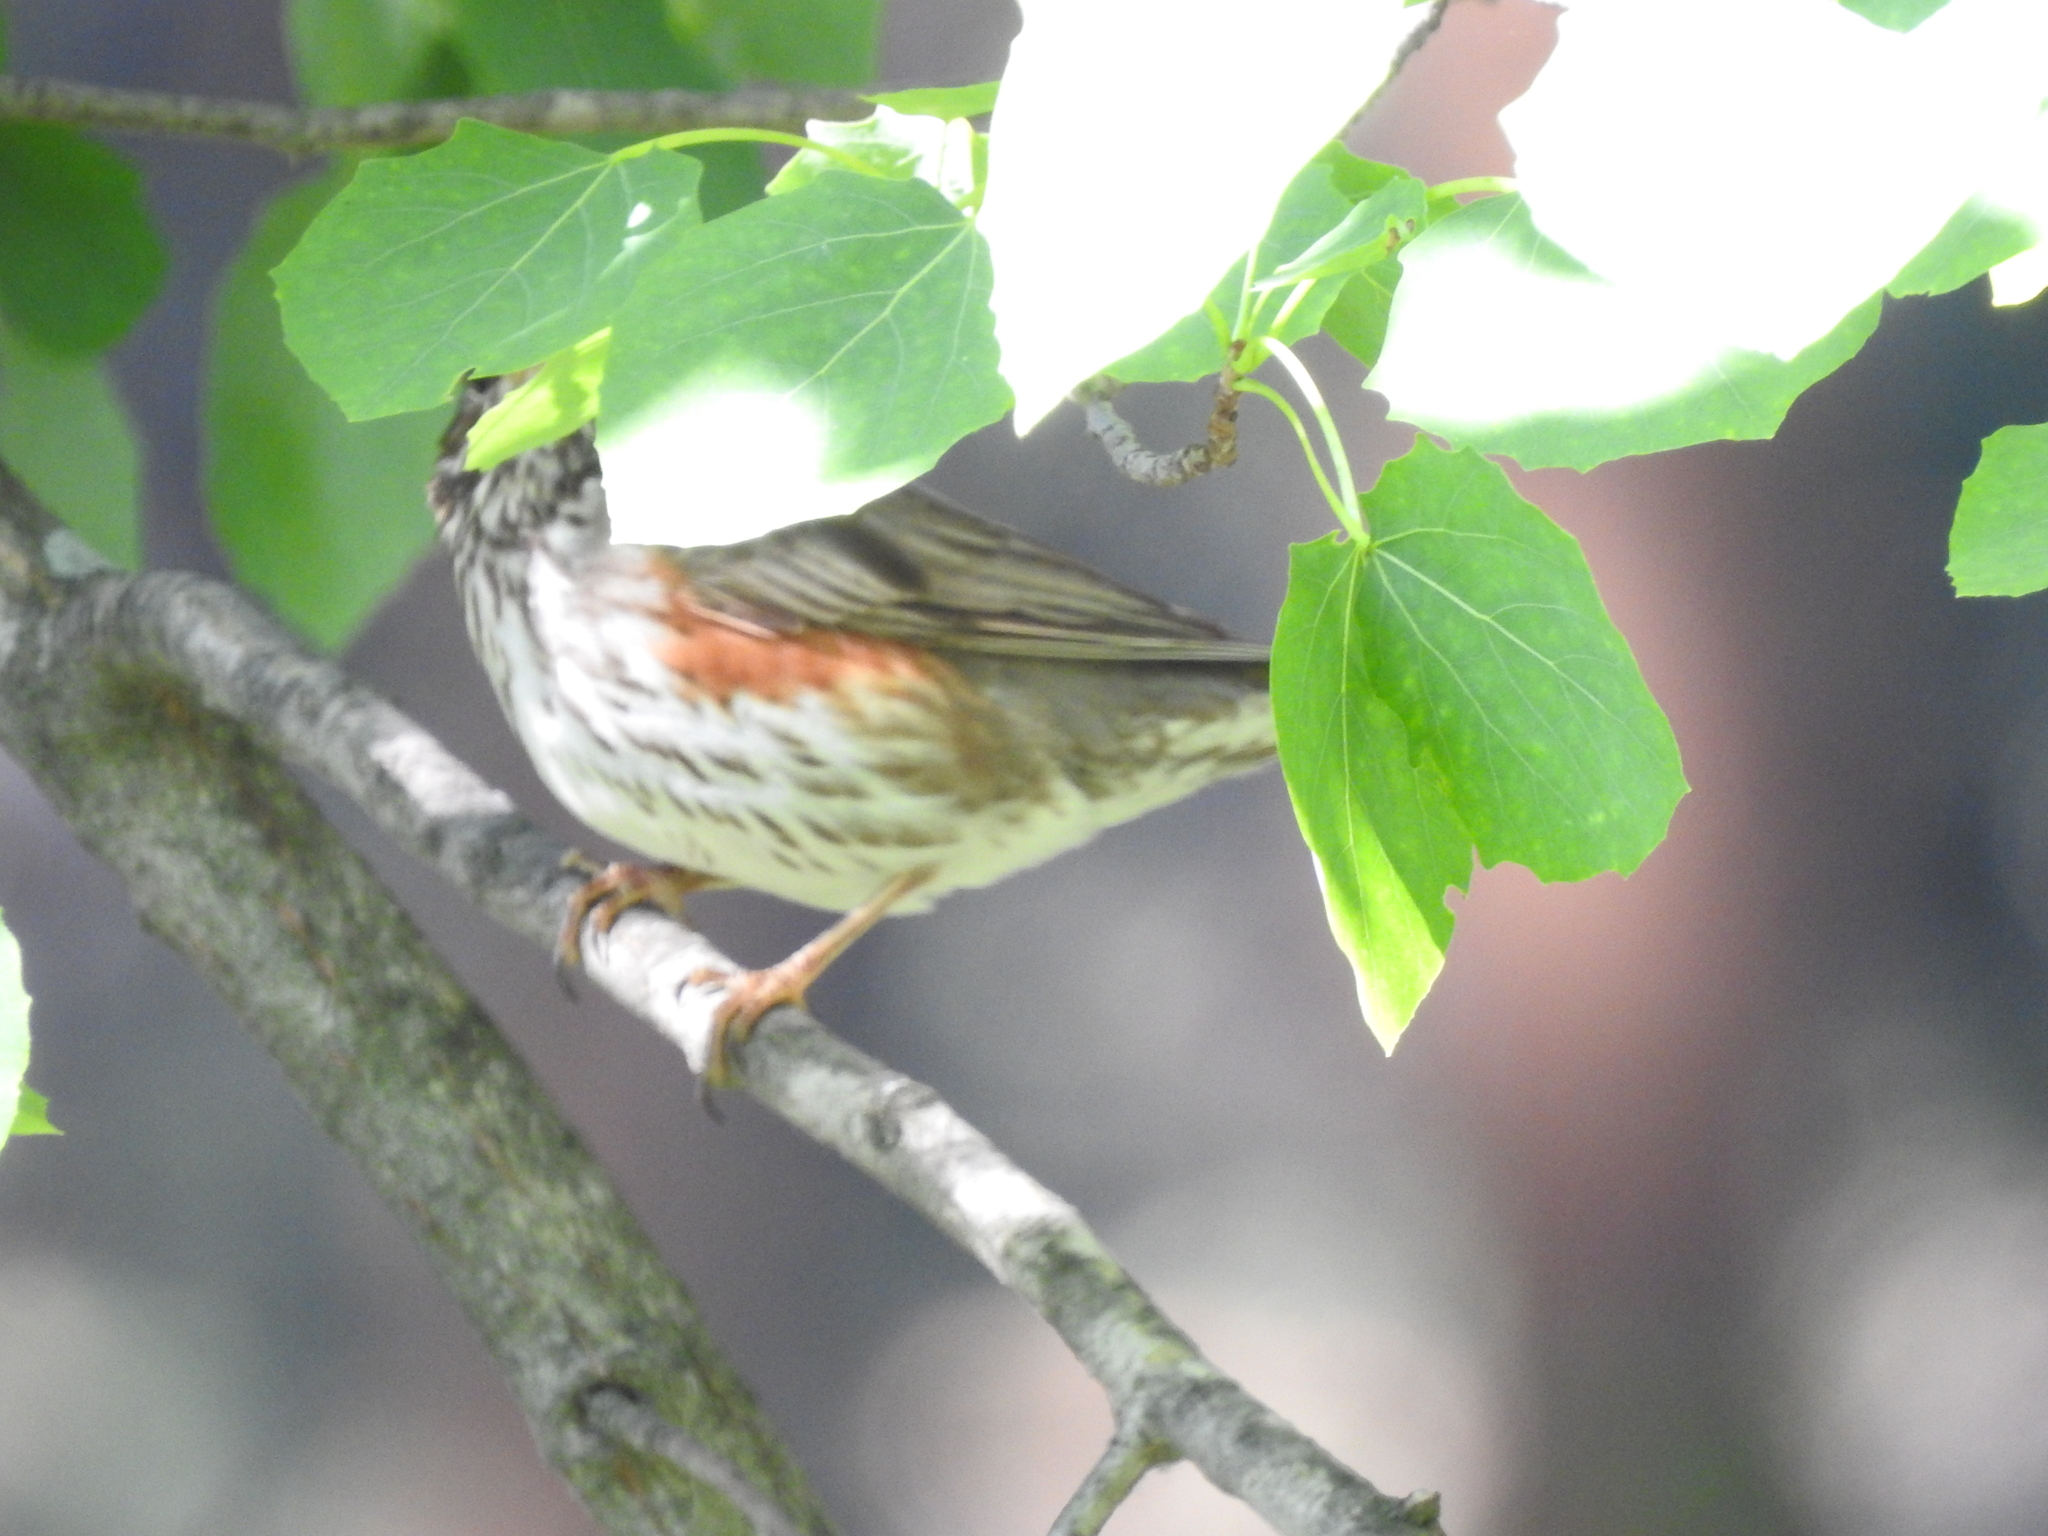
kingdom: Animalia
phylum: Chordata
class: Aves
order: Passeriformes
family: Turdidae
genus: Turdus
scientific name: Turdus iliacus
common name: Redwing
